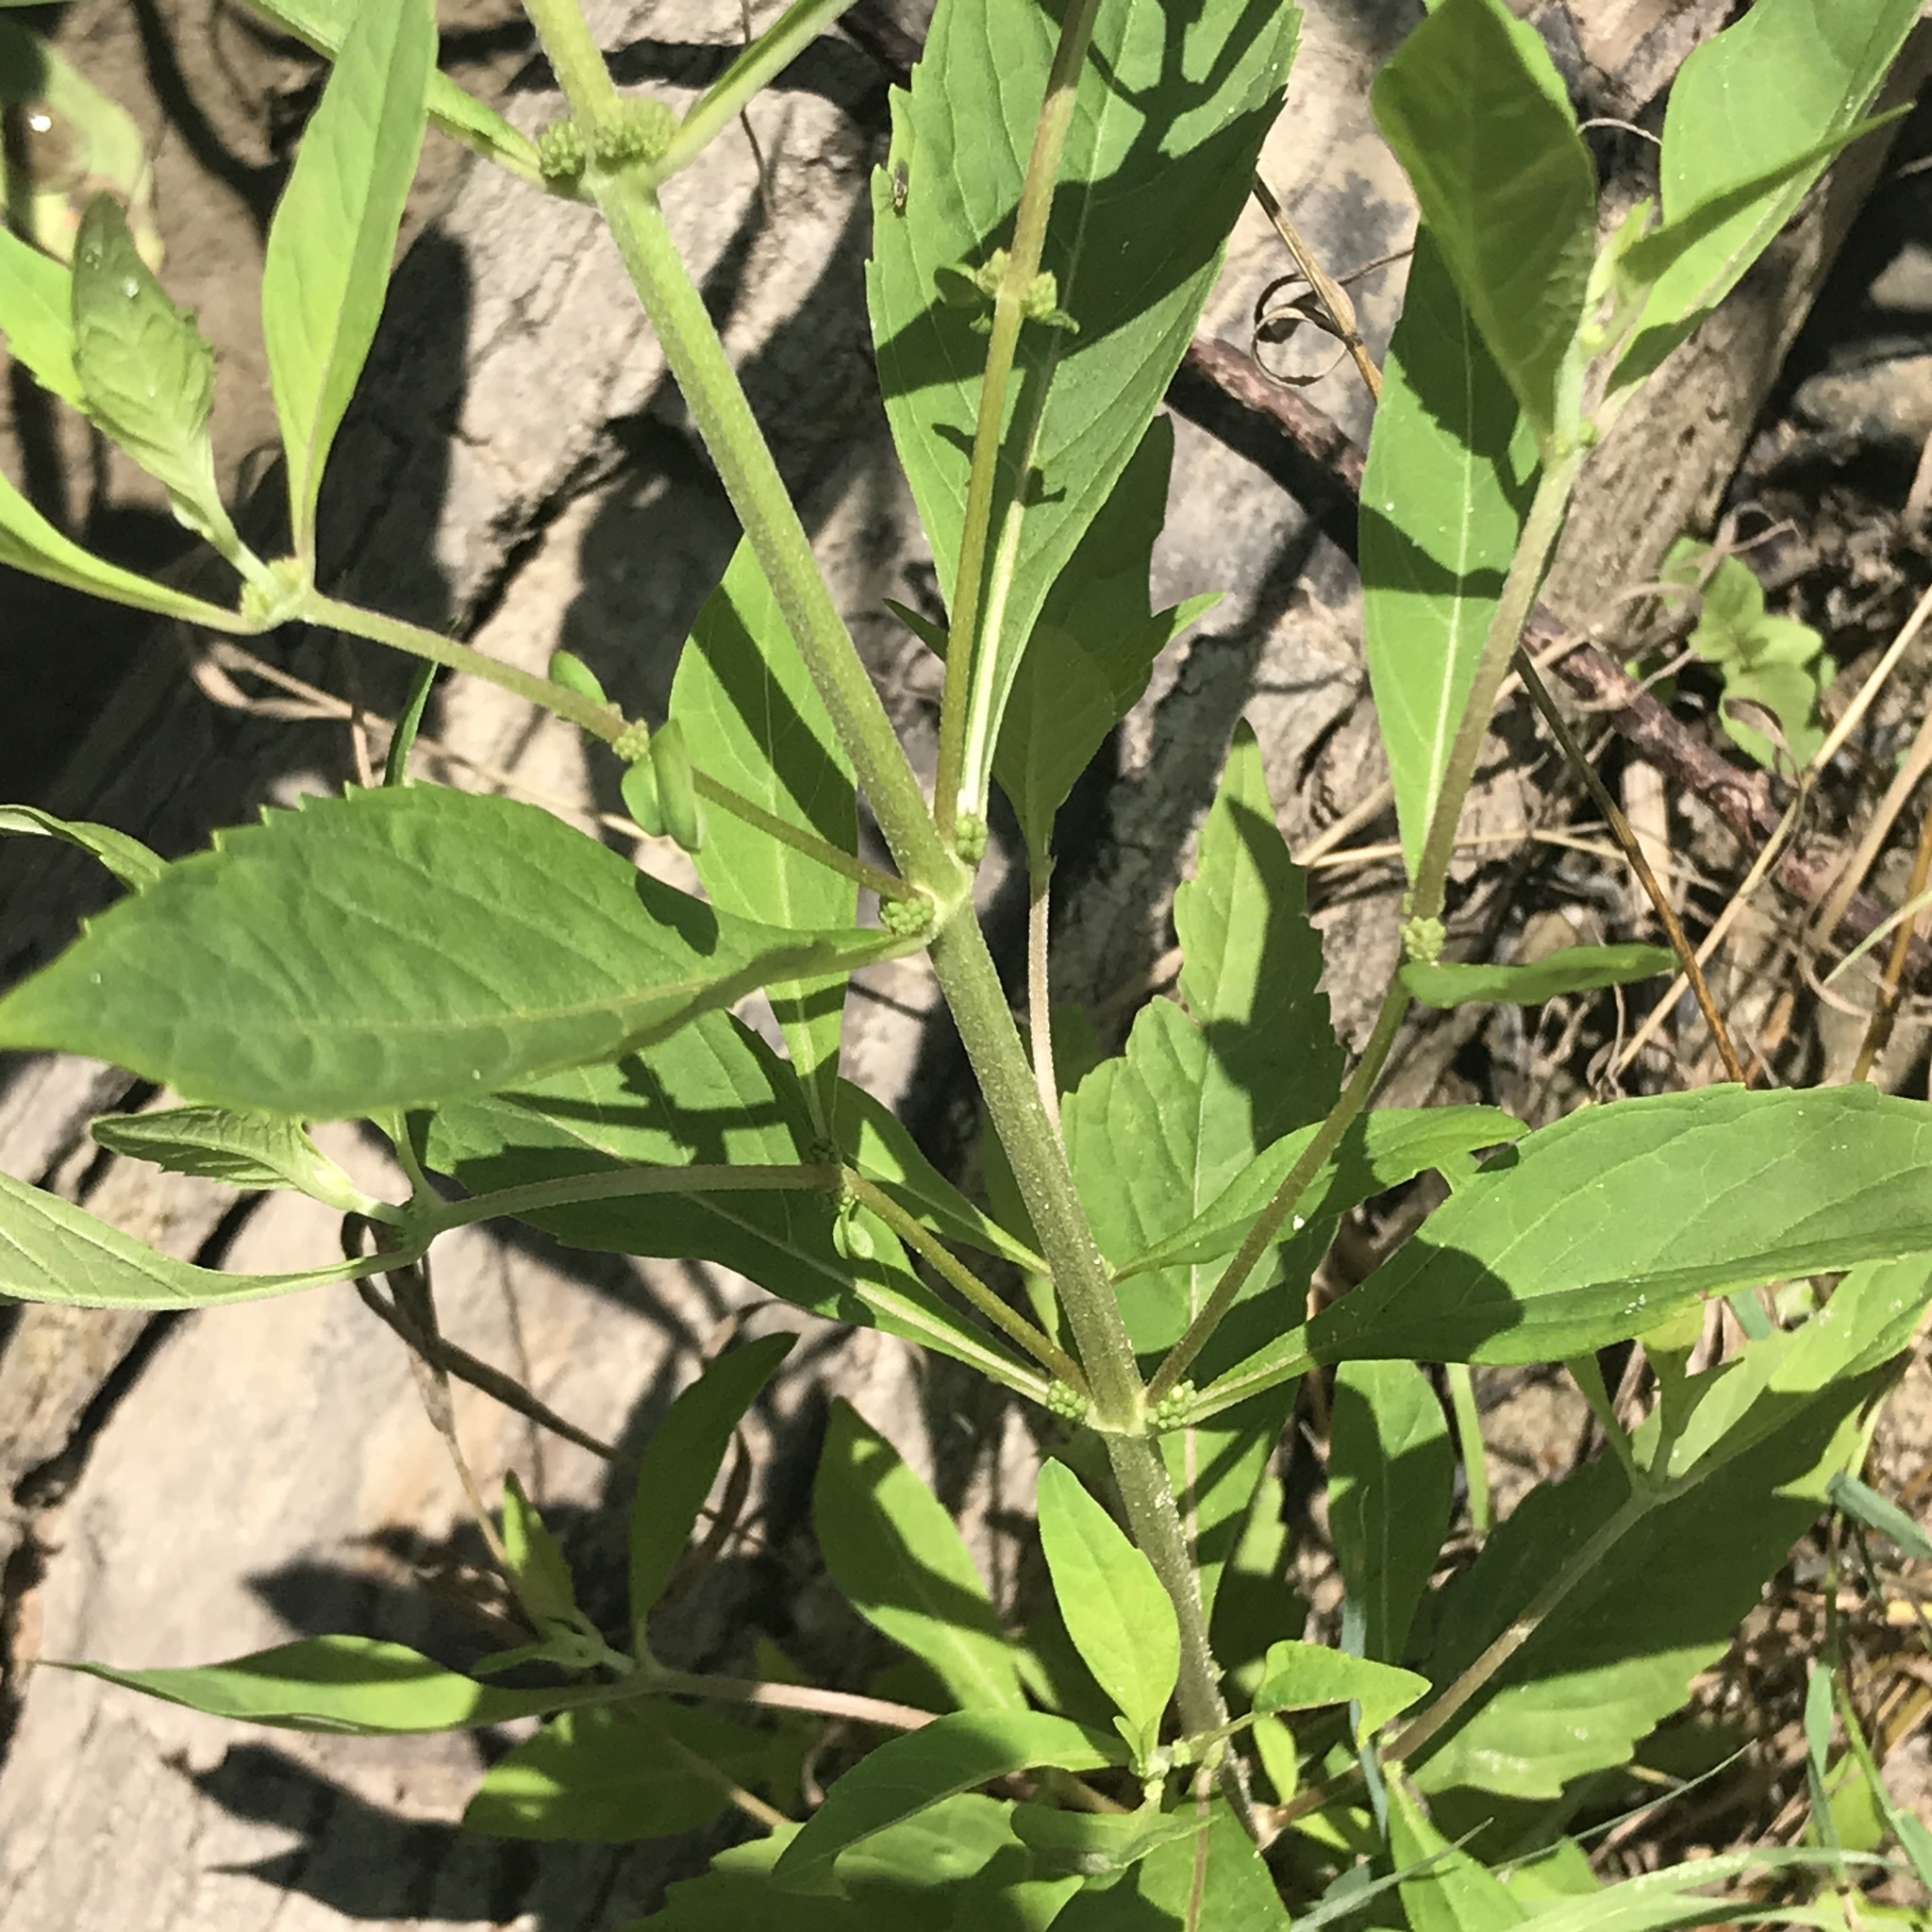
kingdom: Plantae
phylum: Tracheophyta
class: Magnoliopsida
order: Lamiales
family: Lamiaceae
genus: Lycopus
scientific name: Lycopus uniflorus
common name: Northern bugleweed
